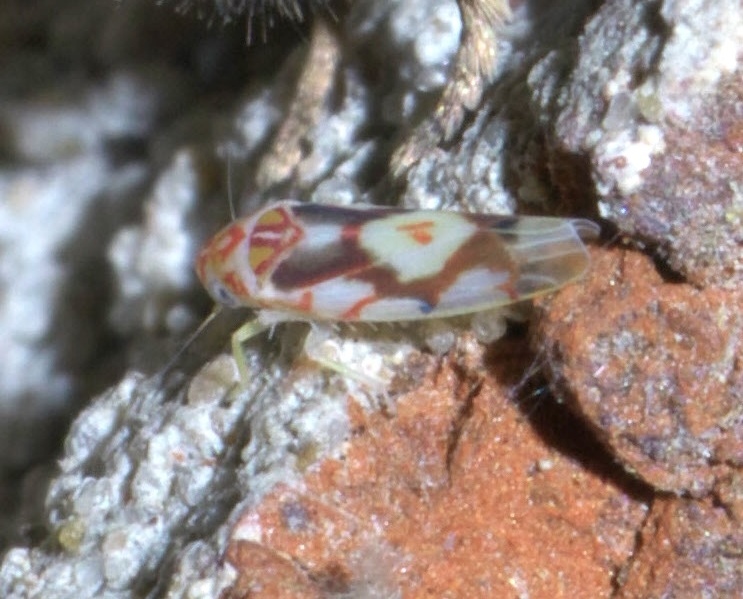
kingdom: Animalia
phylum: Arthropoda
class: Insecta
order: Hemiptera
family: Cicadellidae
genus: Eratoneura
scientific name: Eratoneura ligata
